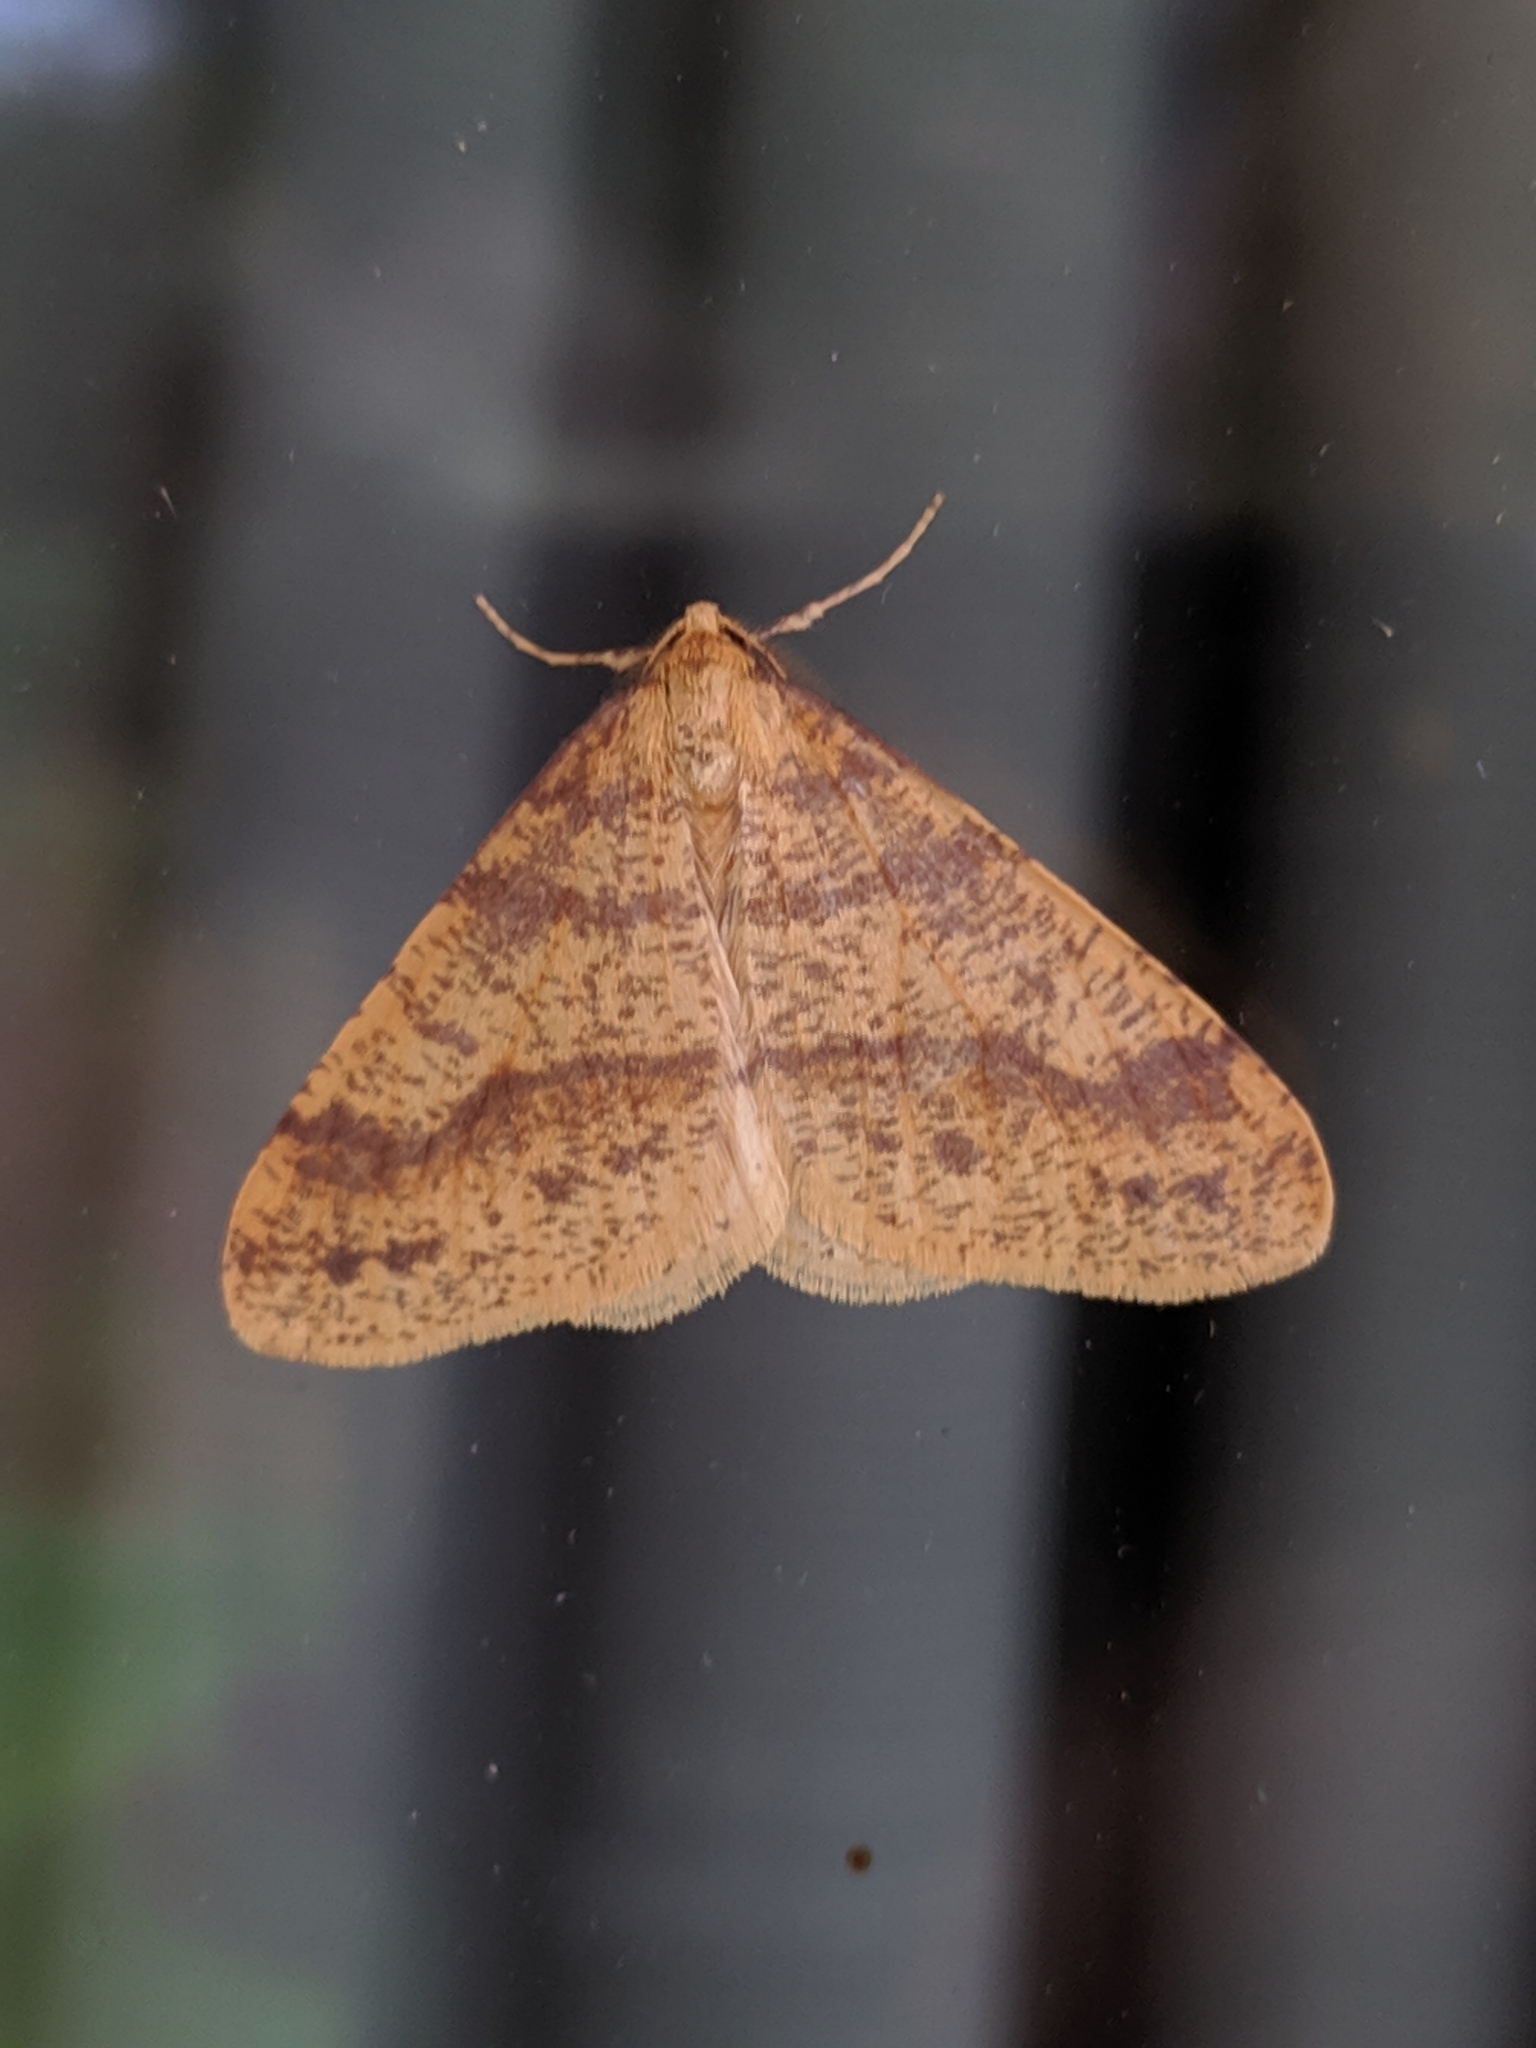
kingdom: Animalia
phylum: Arthropoda
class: Insecta
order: Lepidoptera
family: Geometridae
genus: Agriopis
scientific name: Agriopis aurantiaria
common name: Scarce umber
